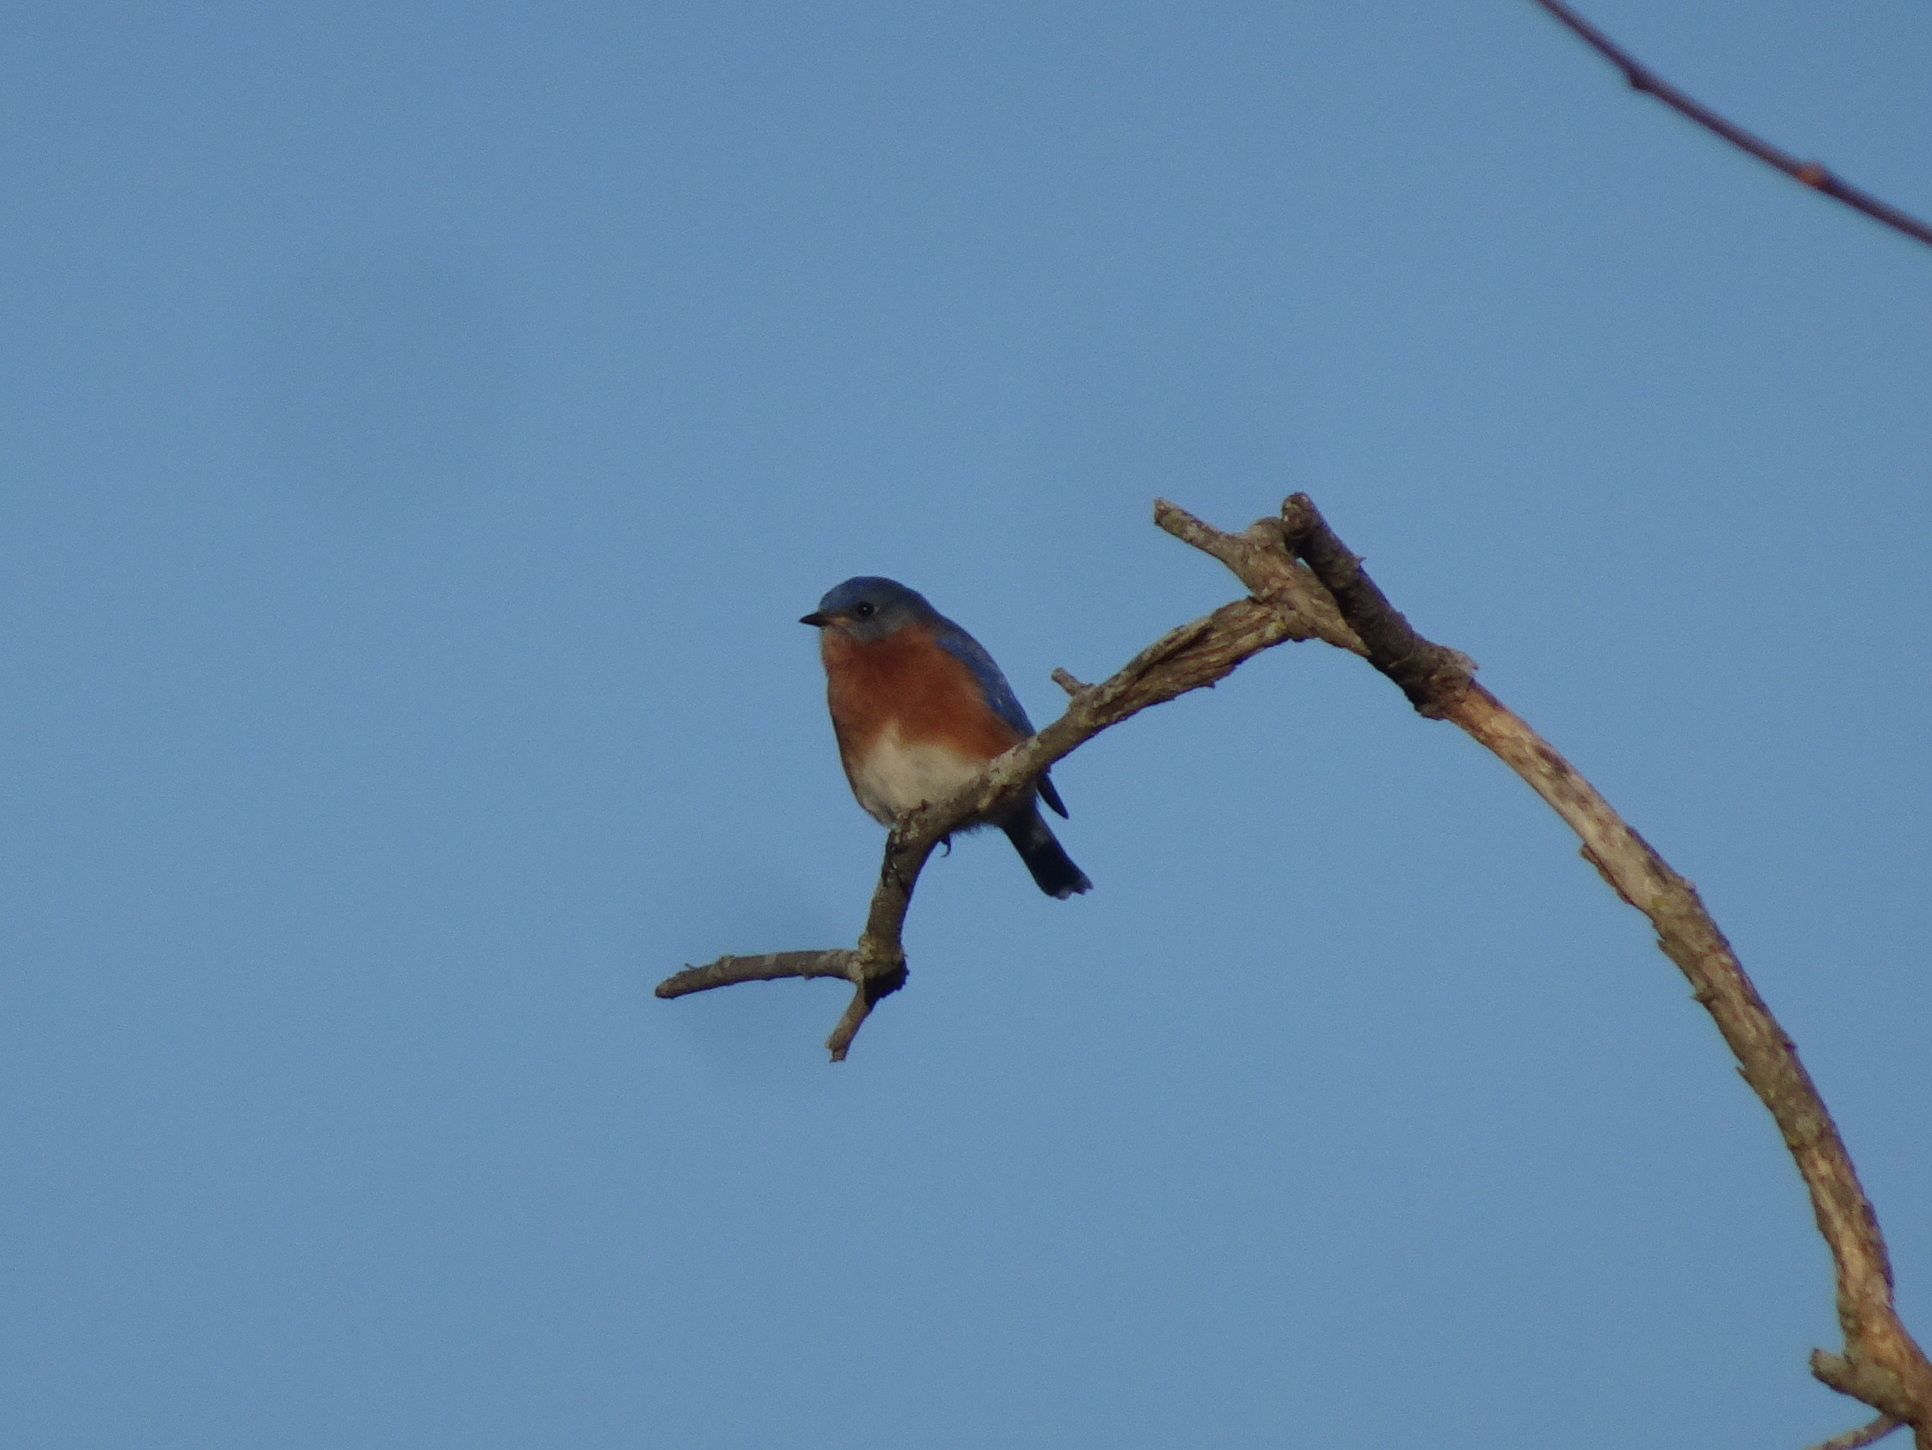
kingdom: Animalia
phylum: Chordata
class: Aves
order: Passeriformes
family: Turdidae
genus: Sialia
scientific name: Sialia sialis
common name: Eastern bluebird
